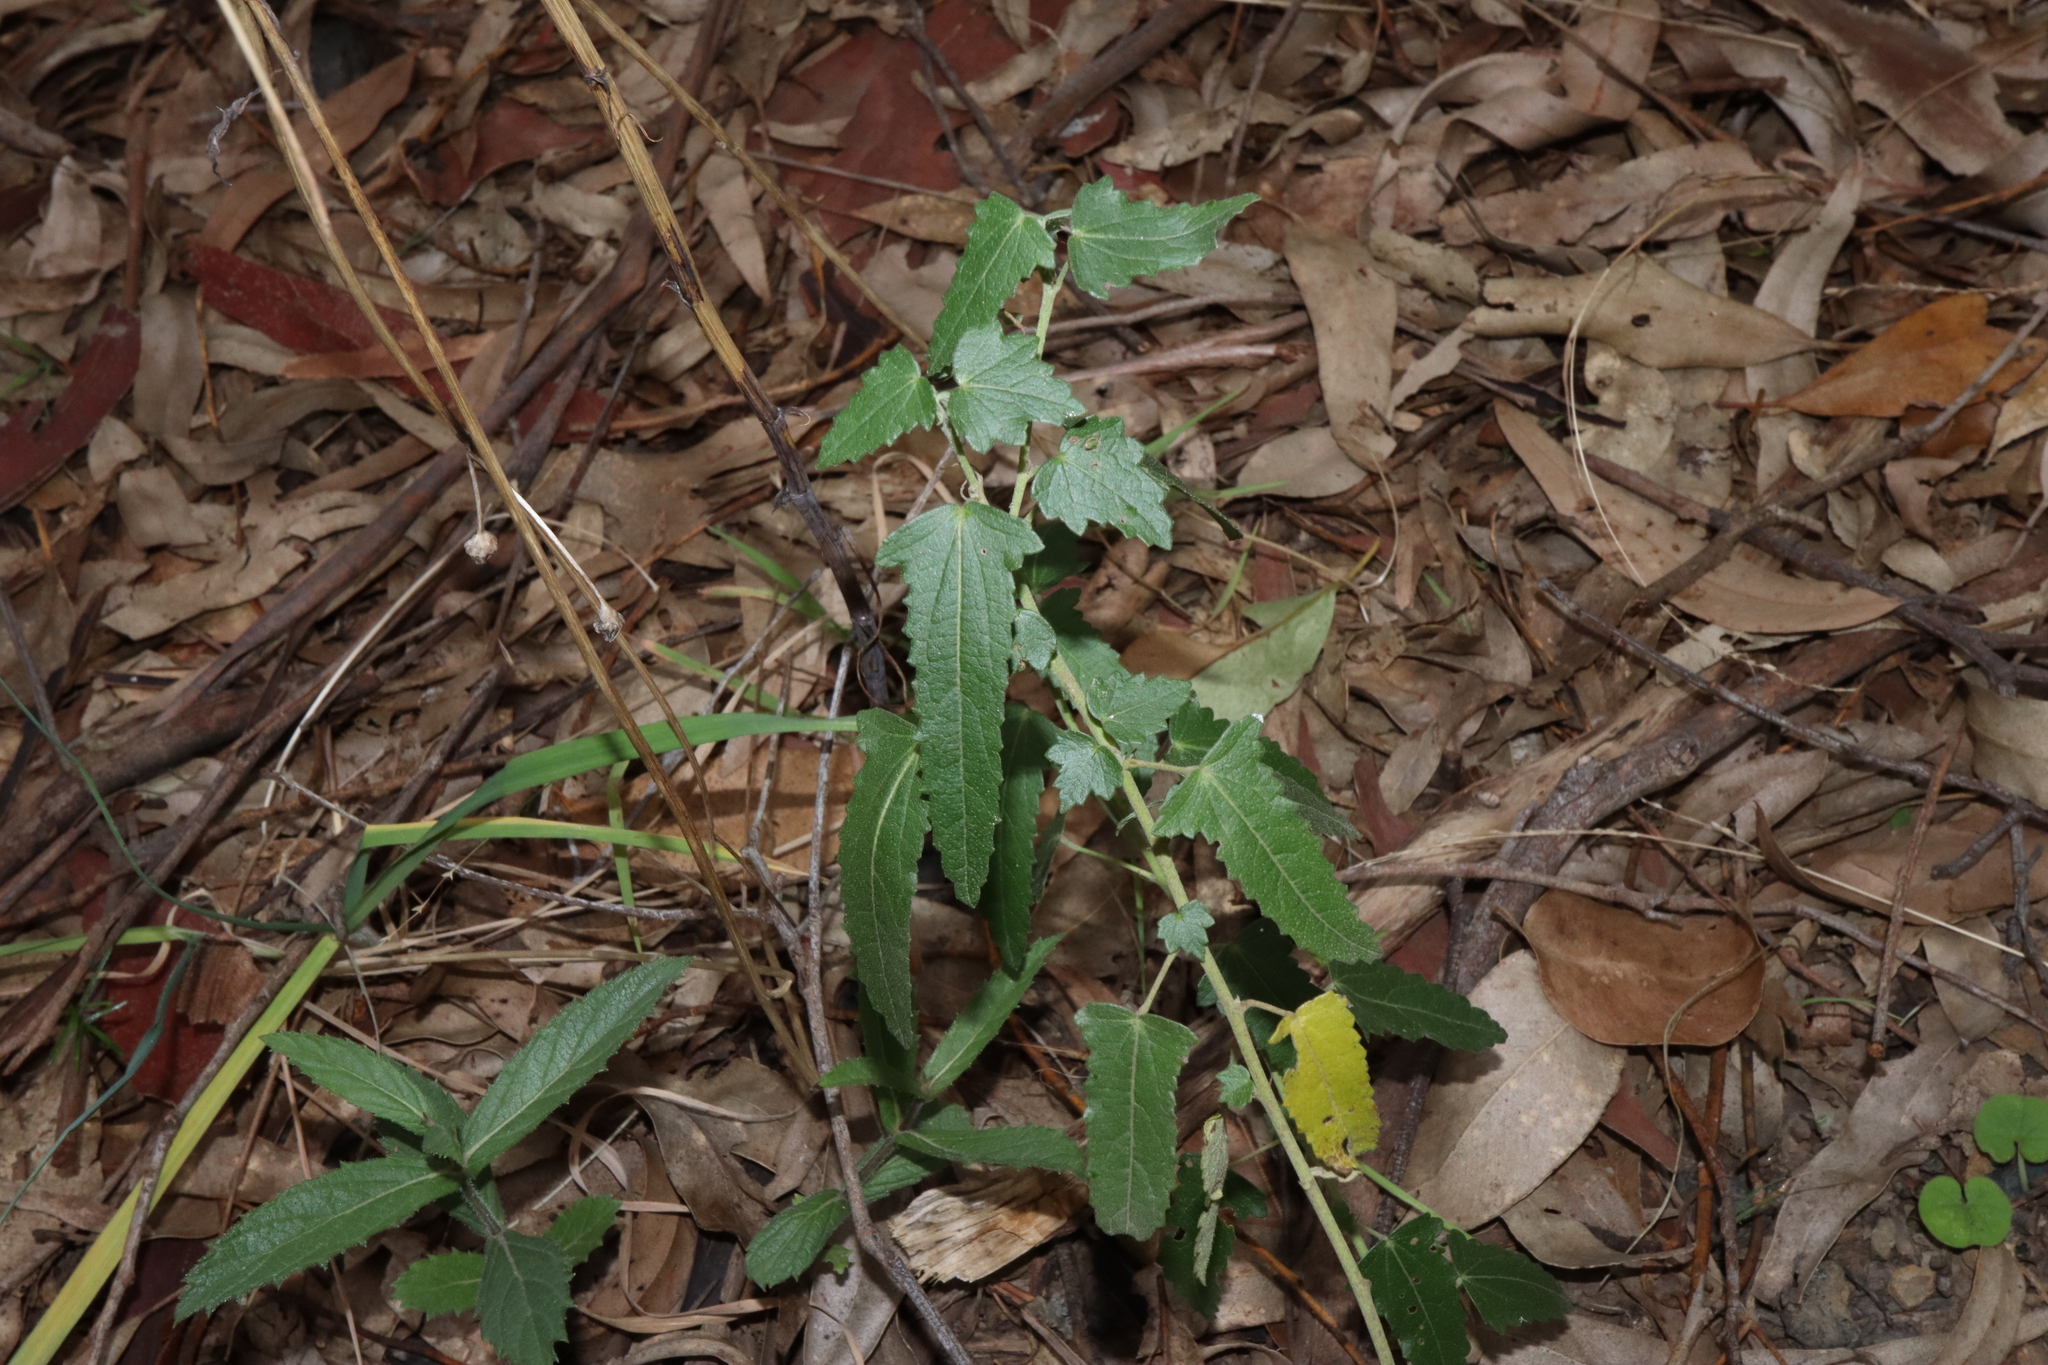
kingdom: Plantae
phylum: Tracheophyta
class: Magnoliopsida
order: Malvales
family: Malvaceae
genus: Pavonia
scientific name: Pavonia hastata
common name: Spearleaf swampmallow
